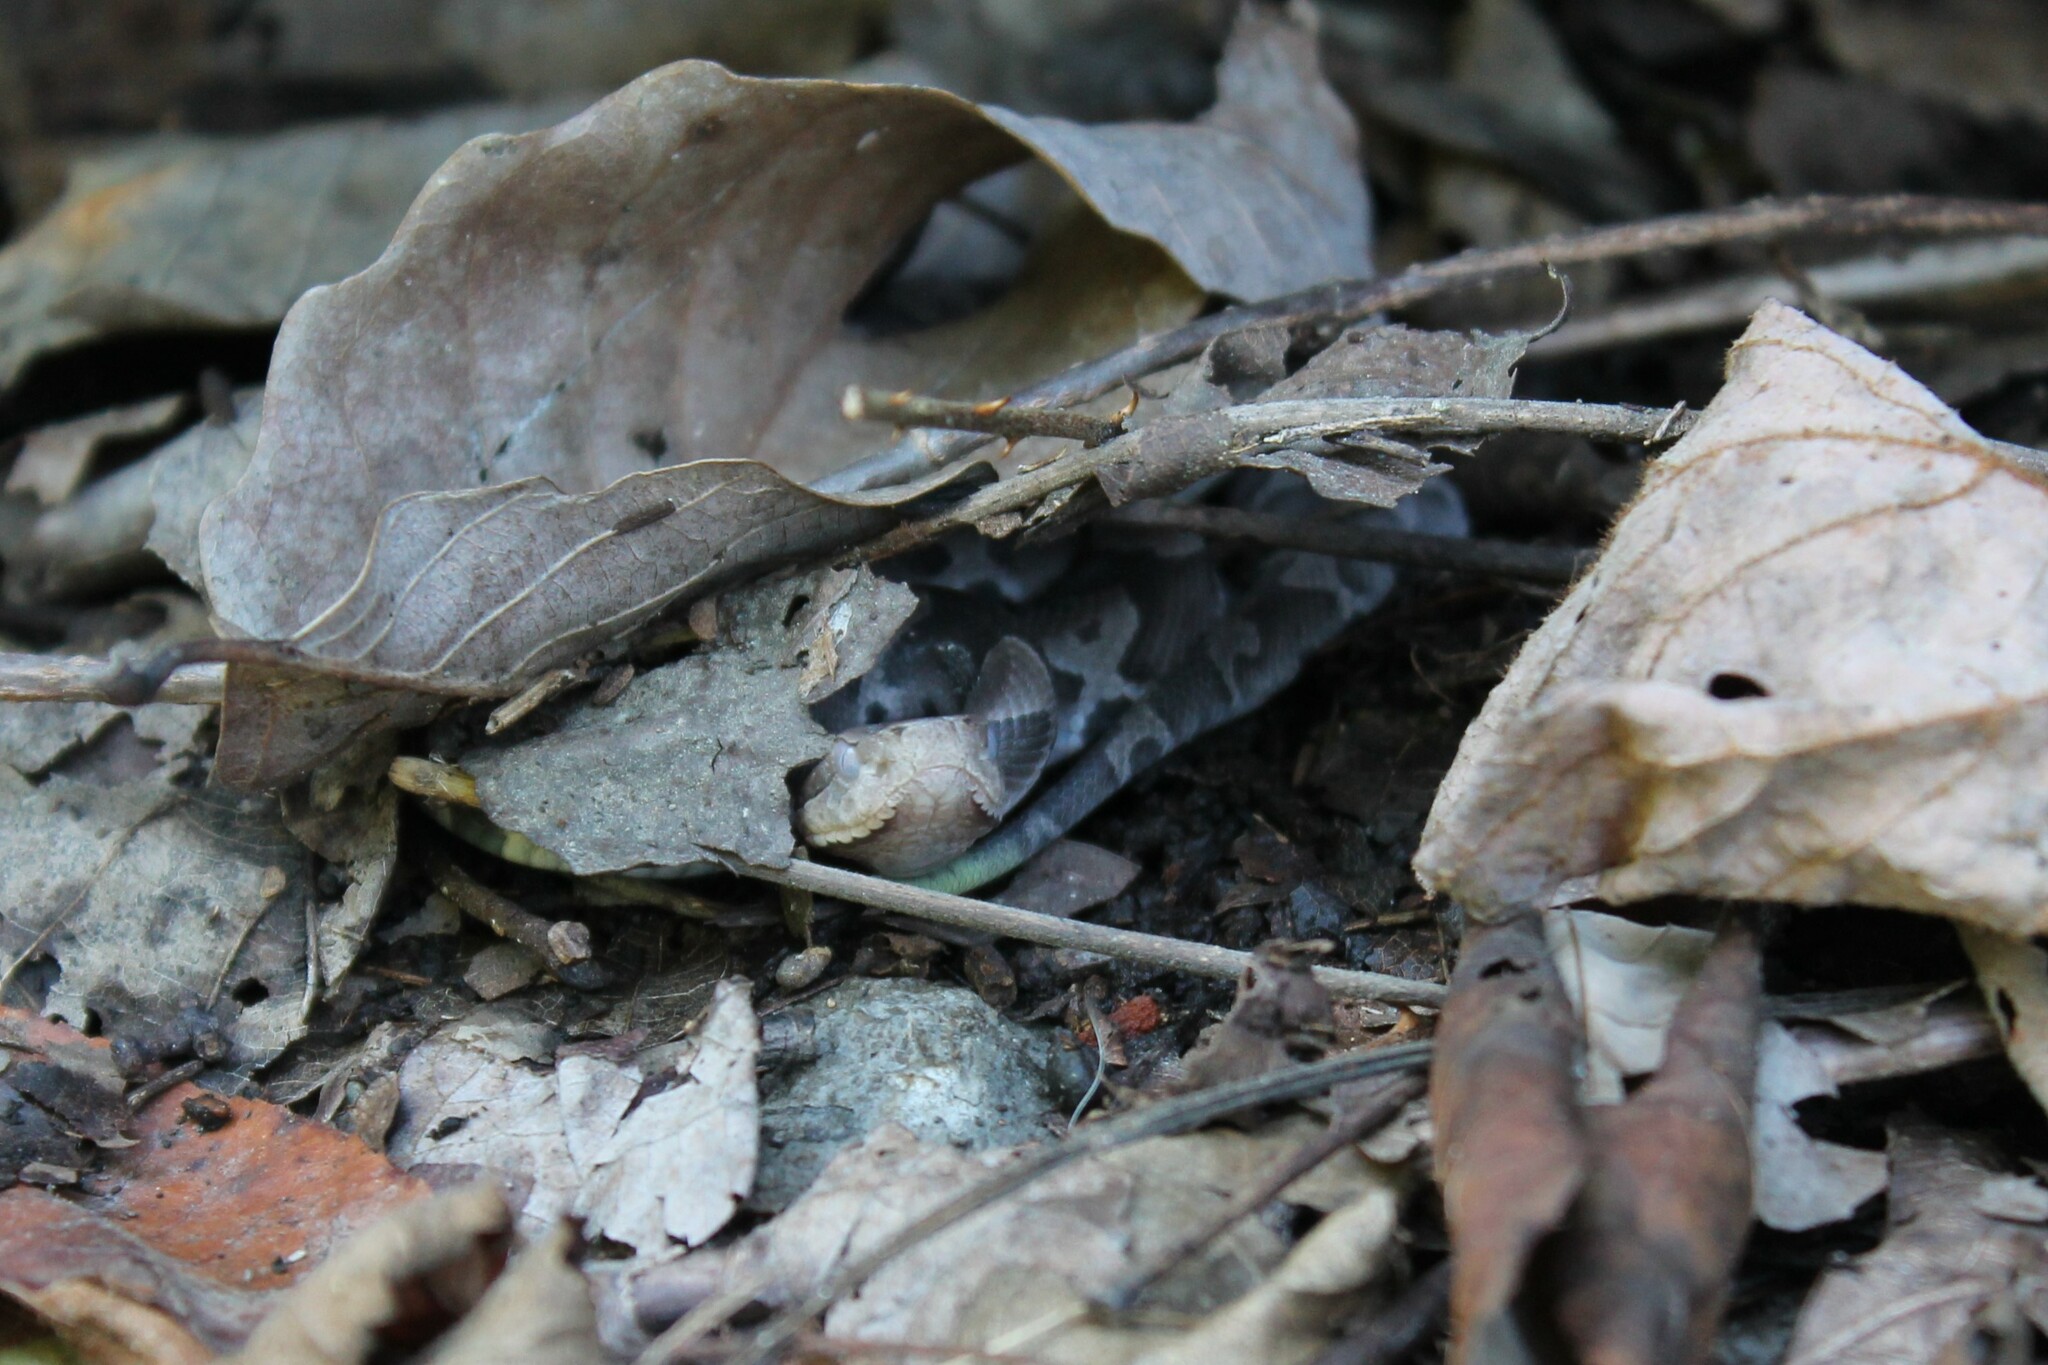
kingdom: Animalia
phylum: Chordata
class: Squamata
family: Viperidae
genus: Agkistrodon
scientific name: Agkistrodon contortrix
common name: Northern copperhead
